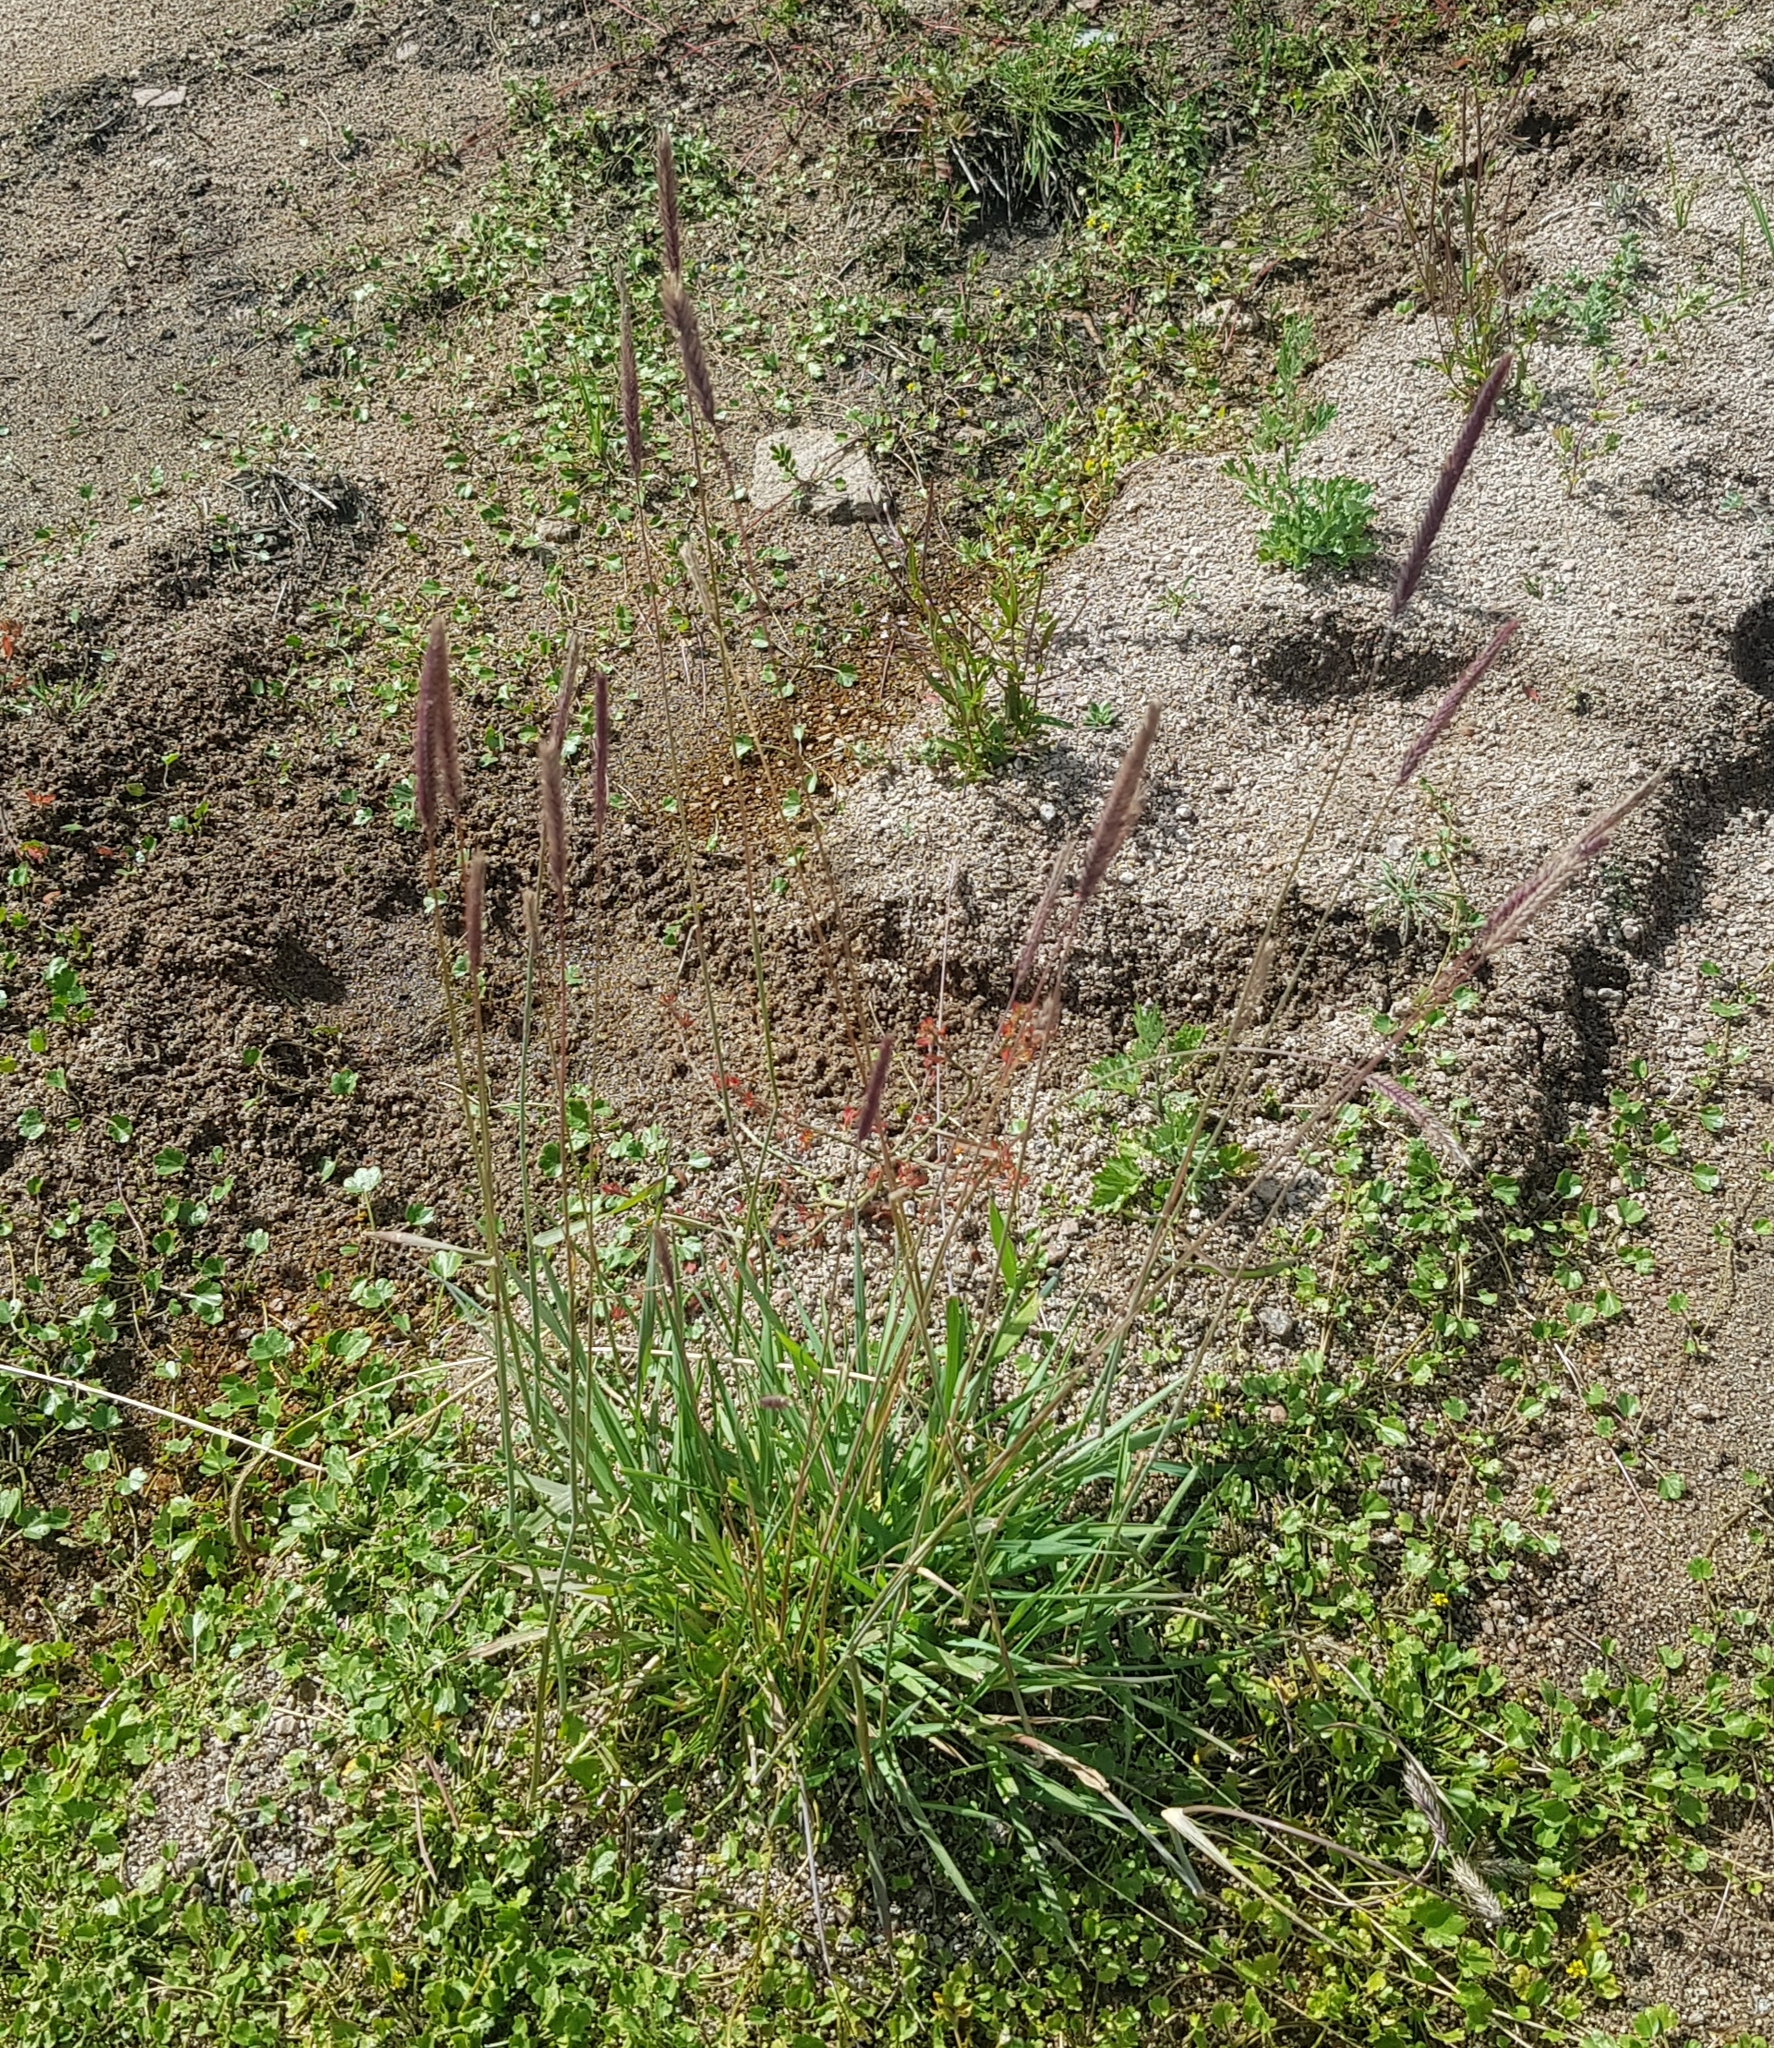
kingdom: Plantae
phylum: Tracheophyta
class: Liliopsida
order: Poales
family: Poaceae
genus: Koeleria
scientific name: Koeleria spicata
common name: Mountain trisetum
